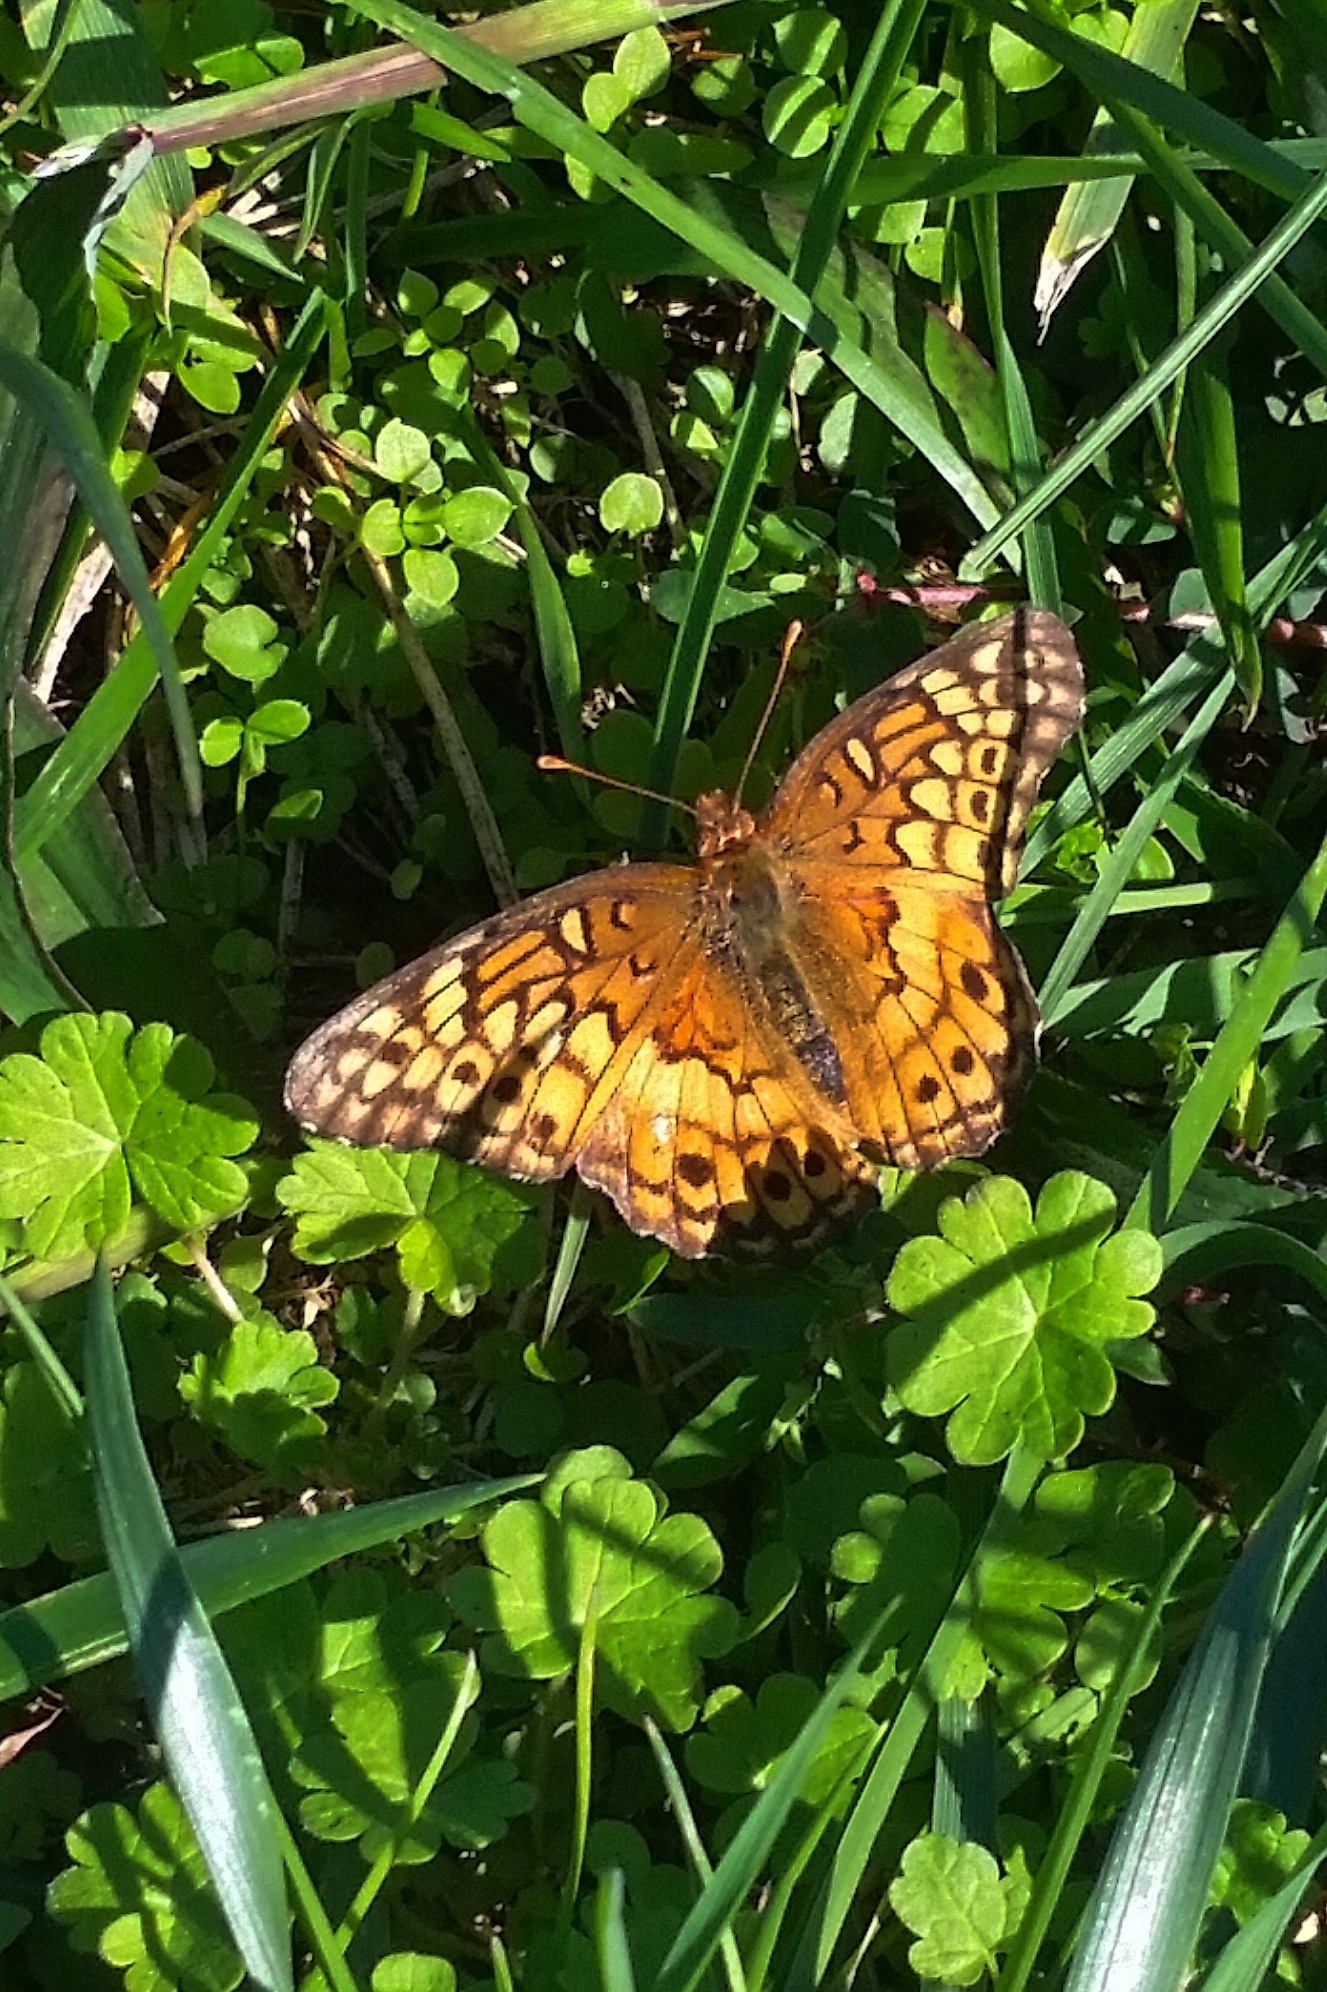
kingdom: Animalia
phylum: Arthropoda
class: Insecta
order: Lepidoptera
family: Nymphalidae
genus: Euptoieta
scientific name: Euptoieta claudia
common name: Variegated fritillary
